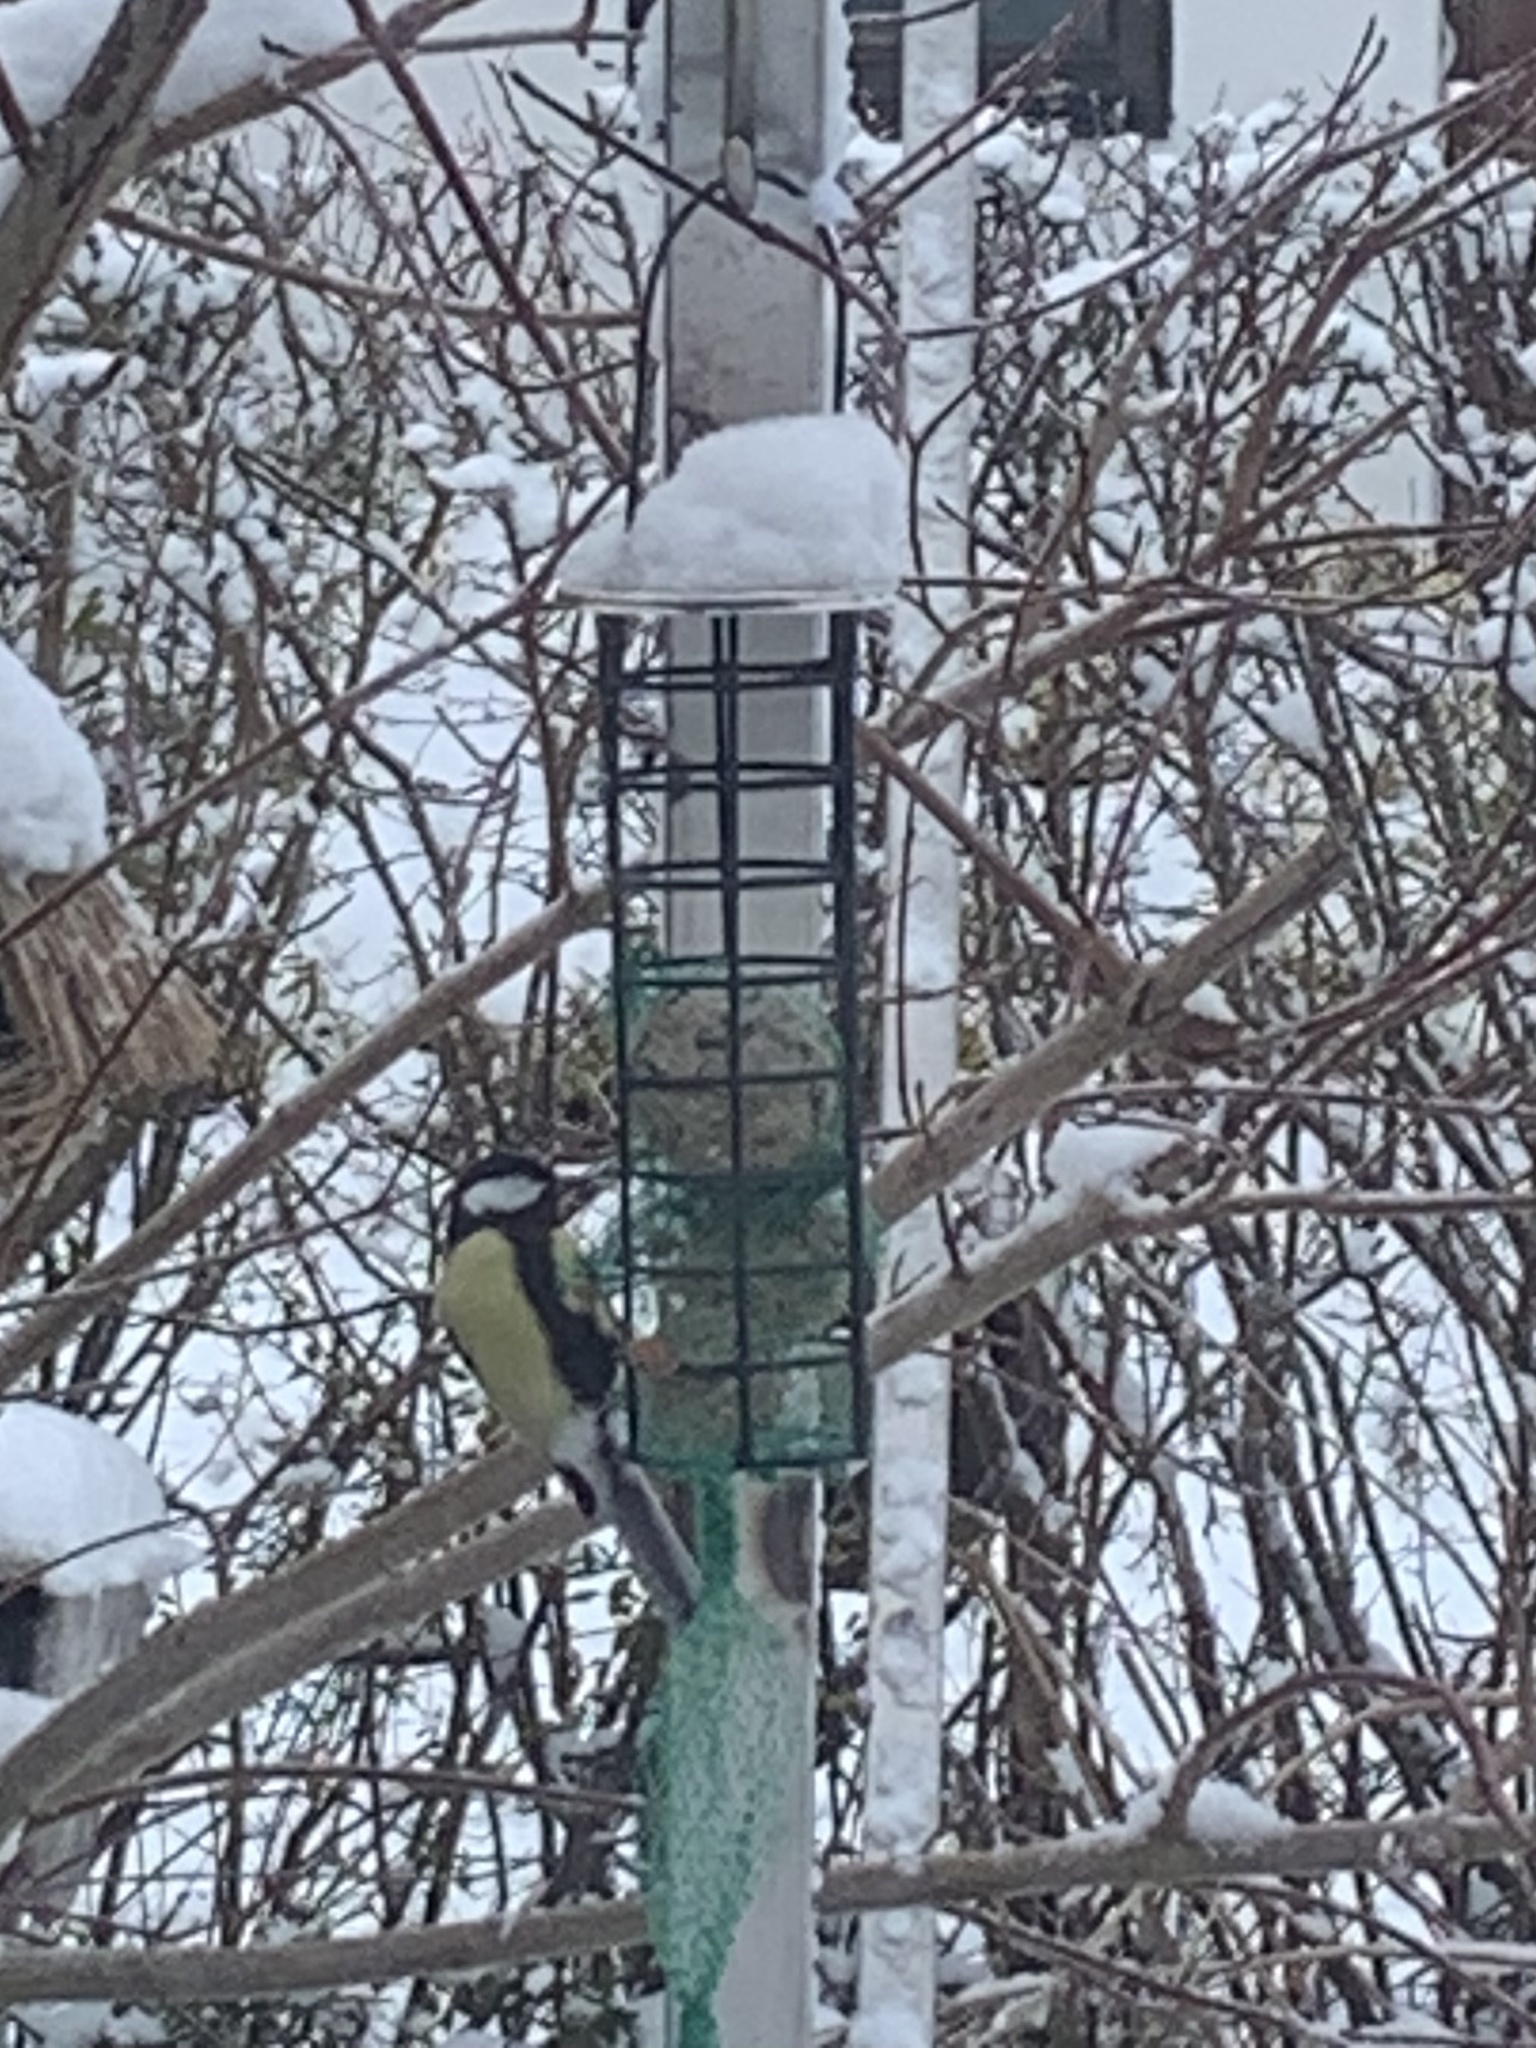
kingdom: Animalia
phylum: Chordata
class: Aves
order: Passeriformes
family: Paridae
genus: Parus
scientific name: Parus major
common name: Great tit
